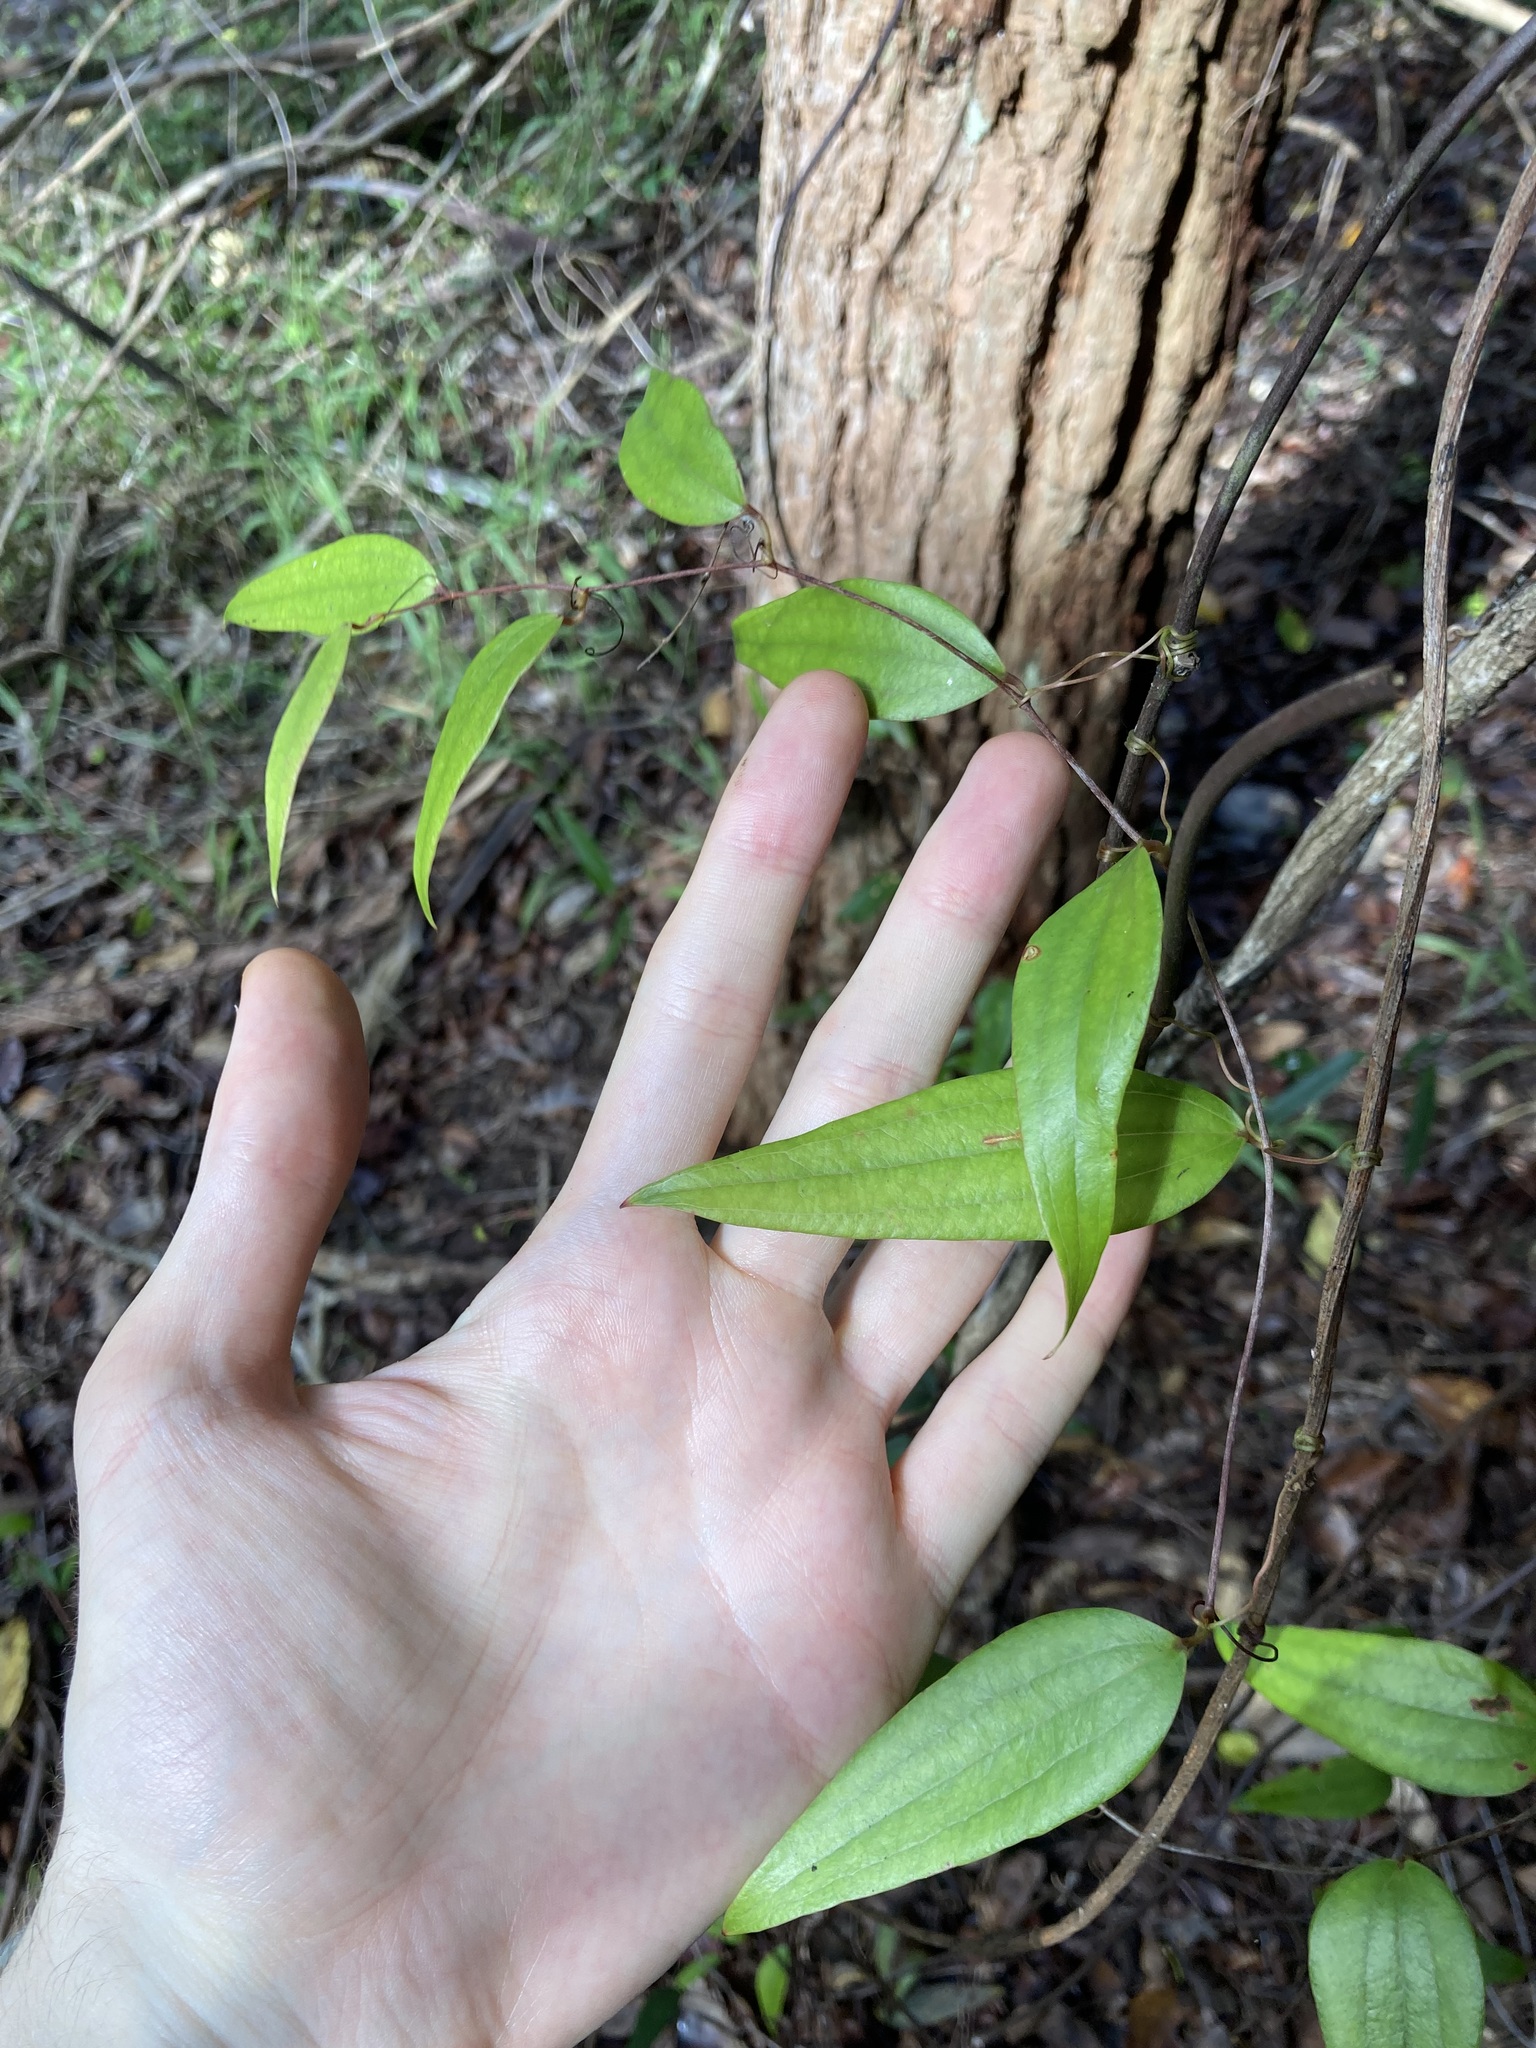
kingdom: Plantae
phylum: Tracheophyta
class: Liliopsida
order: Liliales
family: Smilacaceae
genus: Smilax
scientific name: Smilax glyciphylla
